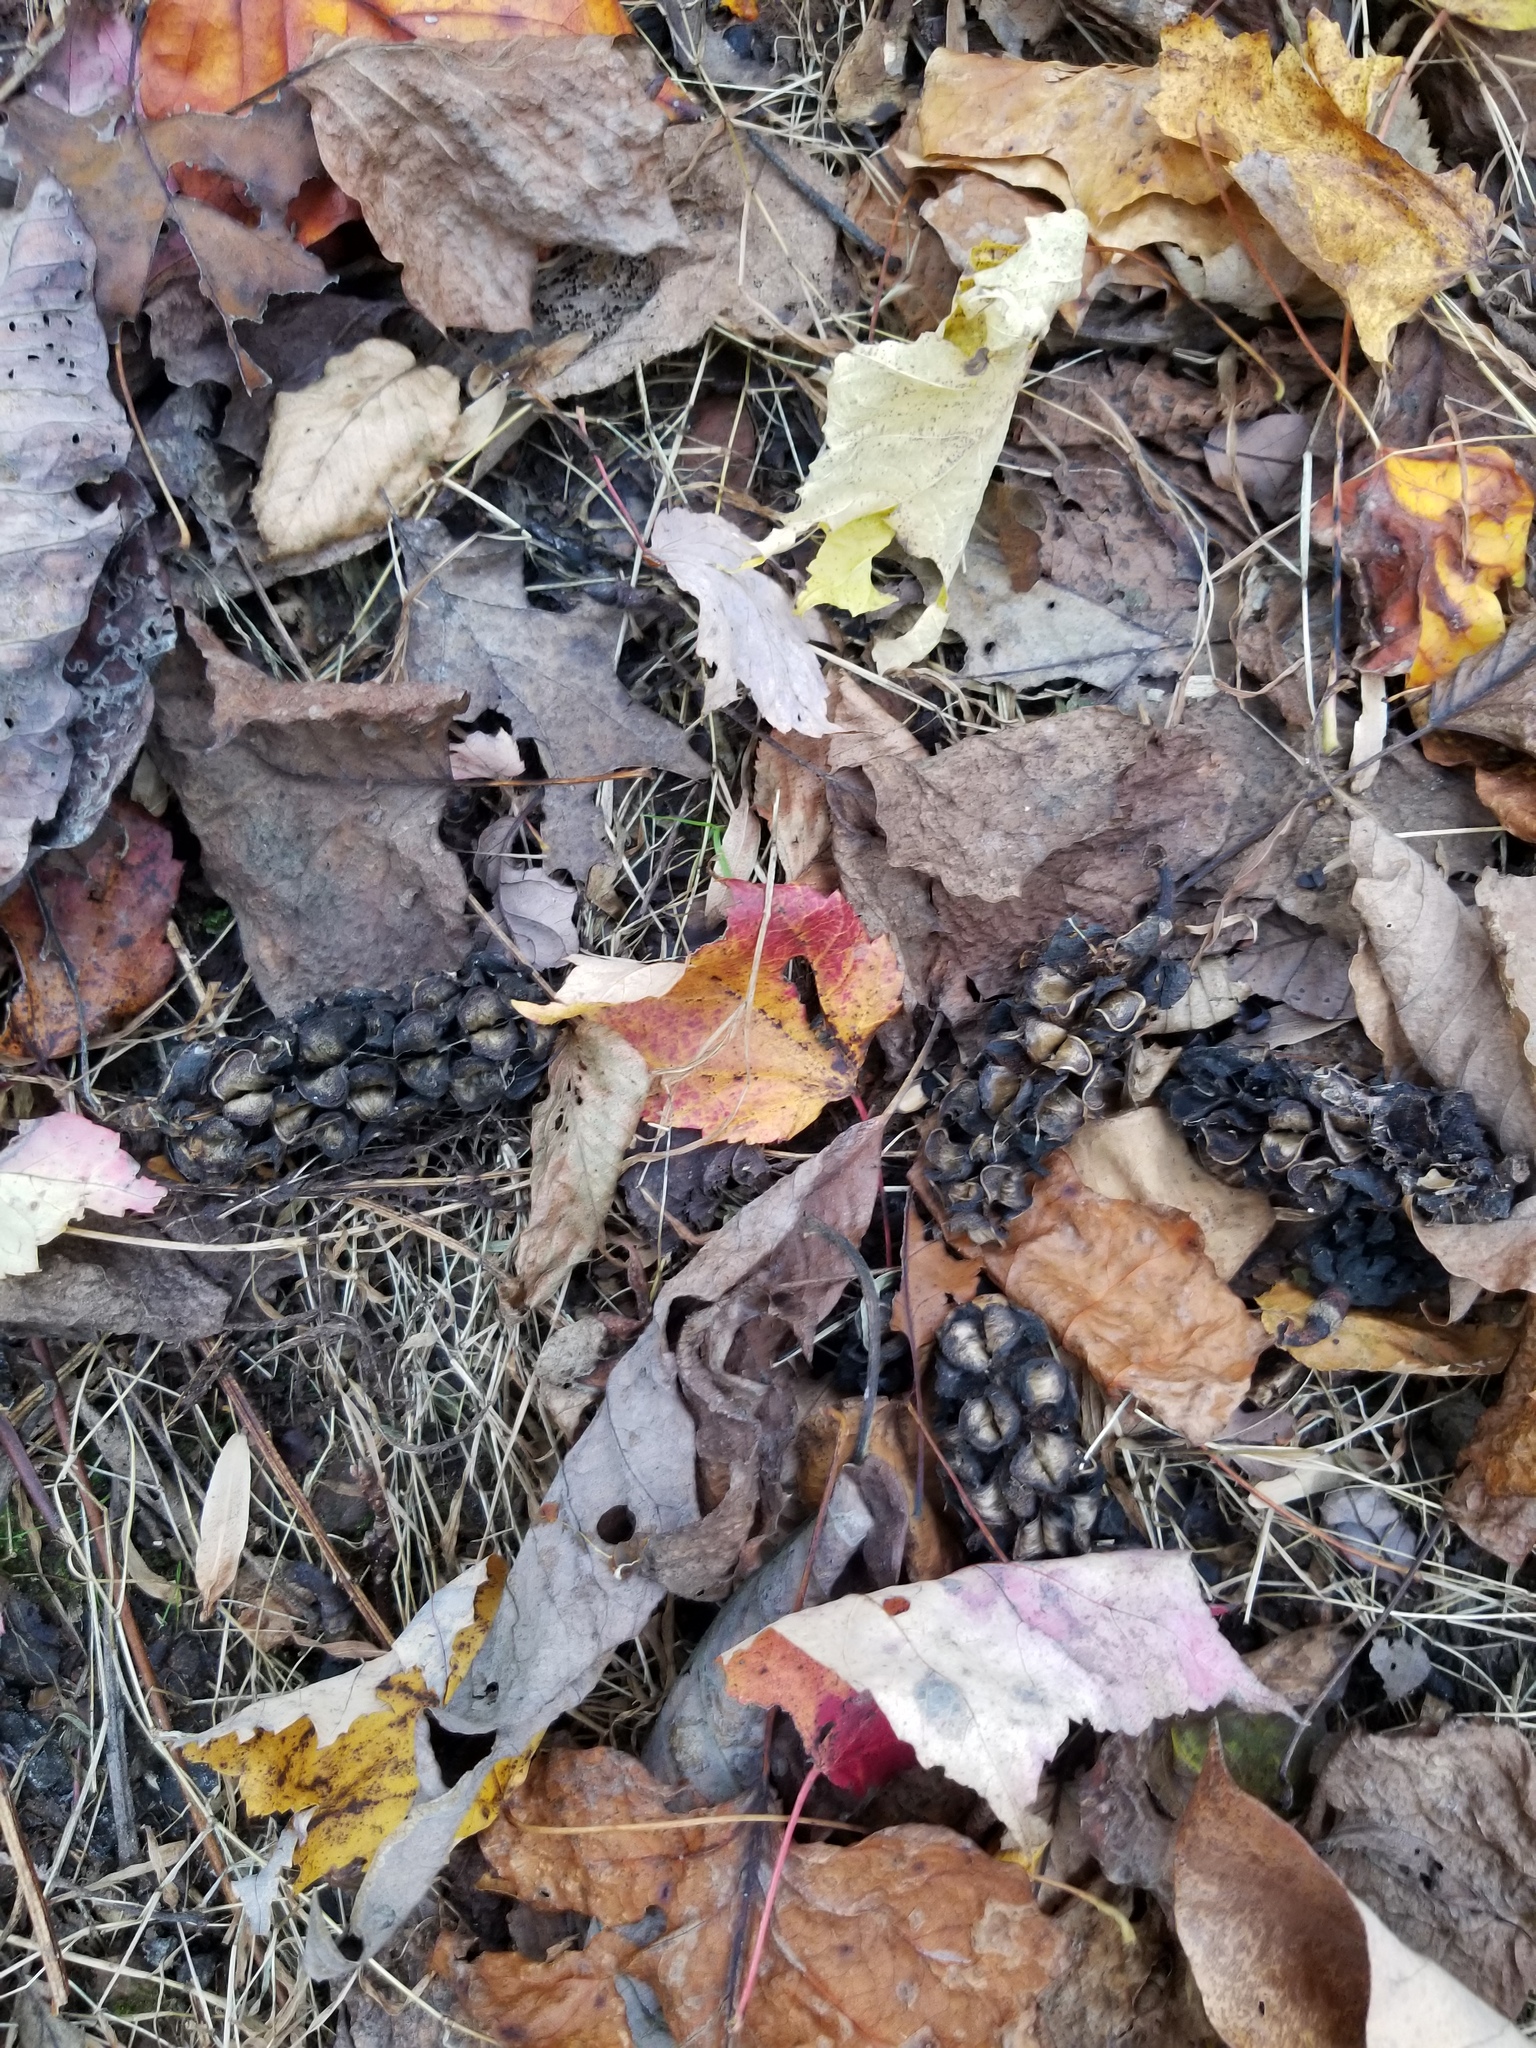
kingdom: Plantae
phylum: Tracheophyta
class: Magnoliopsida
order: Magnoliales
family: Magnoliaceae
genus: Magnolia
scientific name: Magnolia acuminata
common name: Cucumber magnolia
